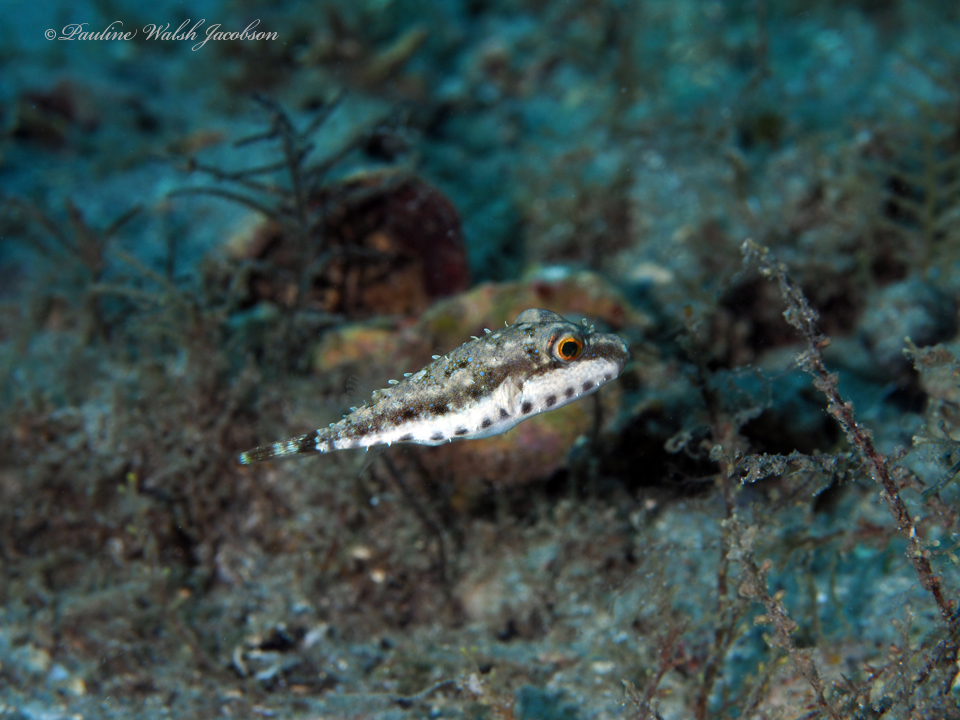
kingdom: Animalia
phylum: Chordata
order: Tetraodontiformes
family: Tetraodontidae
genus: Sphoeroides
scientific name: Sphoeroides spengleri
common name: Bandtail puffer
